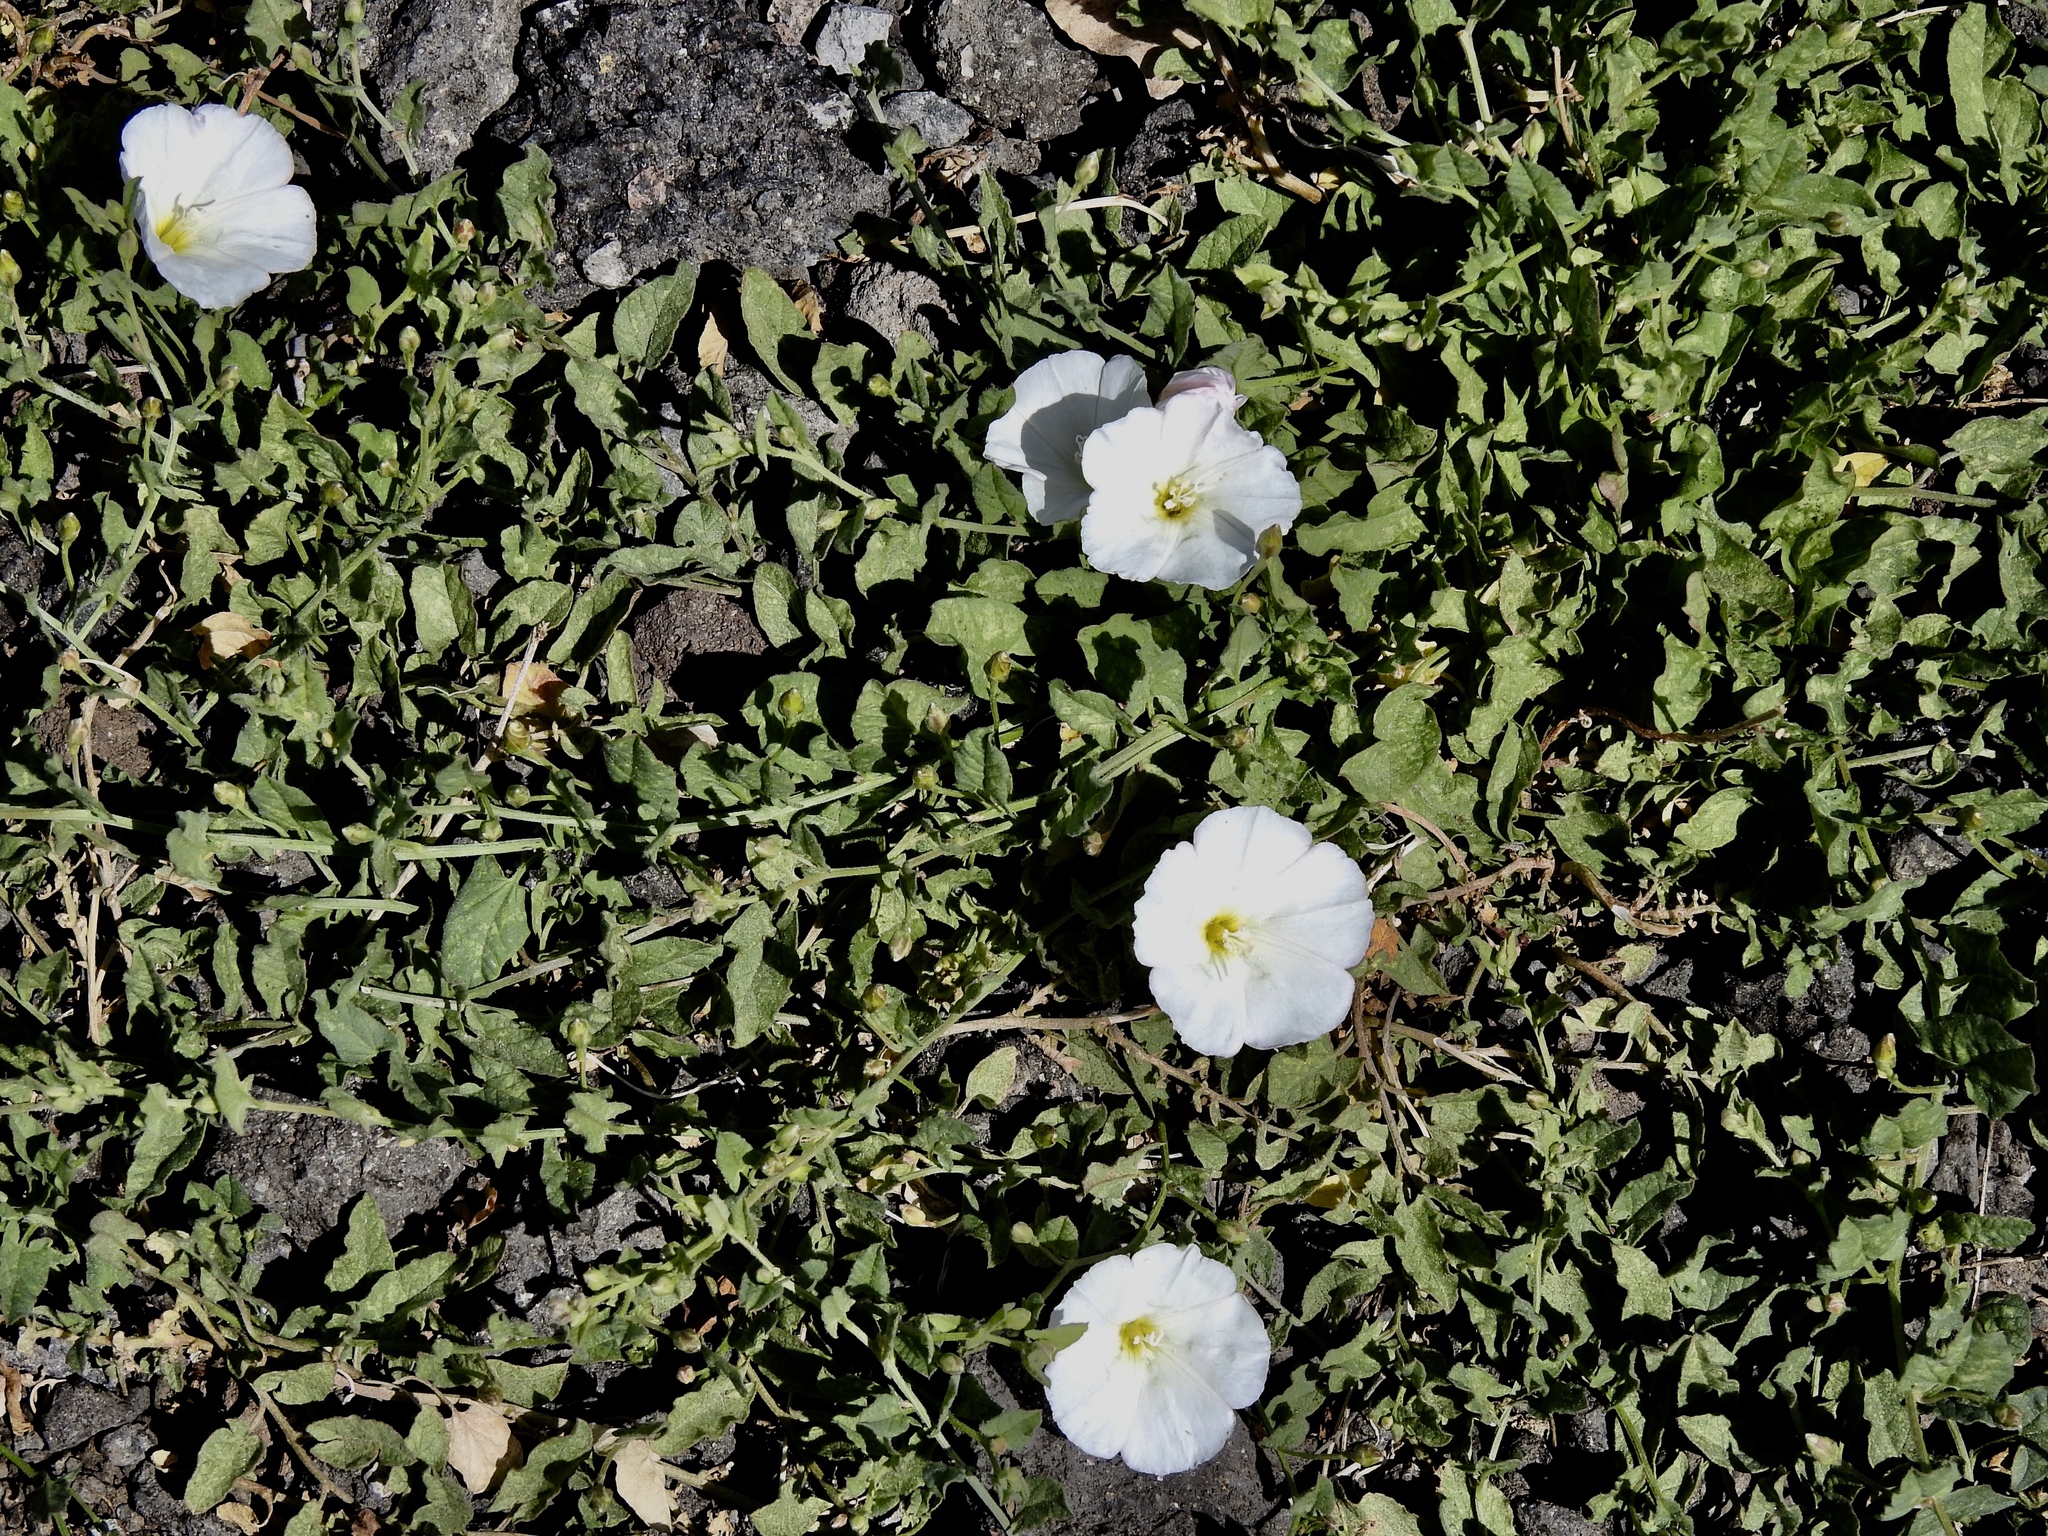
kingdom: Plantae
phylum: Tracheophyta
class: Magnoliopsida
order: Solanales
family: Convolvulaceae
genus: Convolvulus
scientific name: Convolvulus arvensis
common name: Field bindweed
